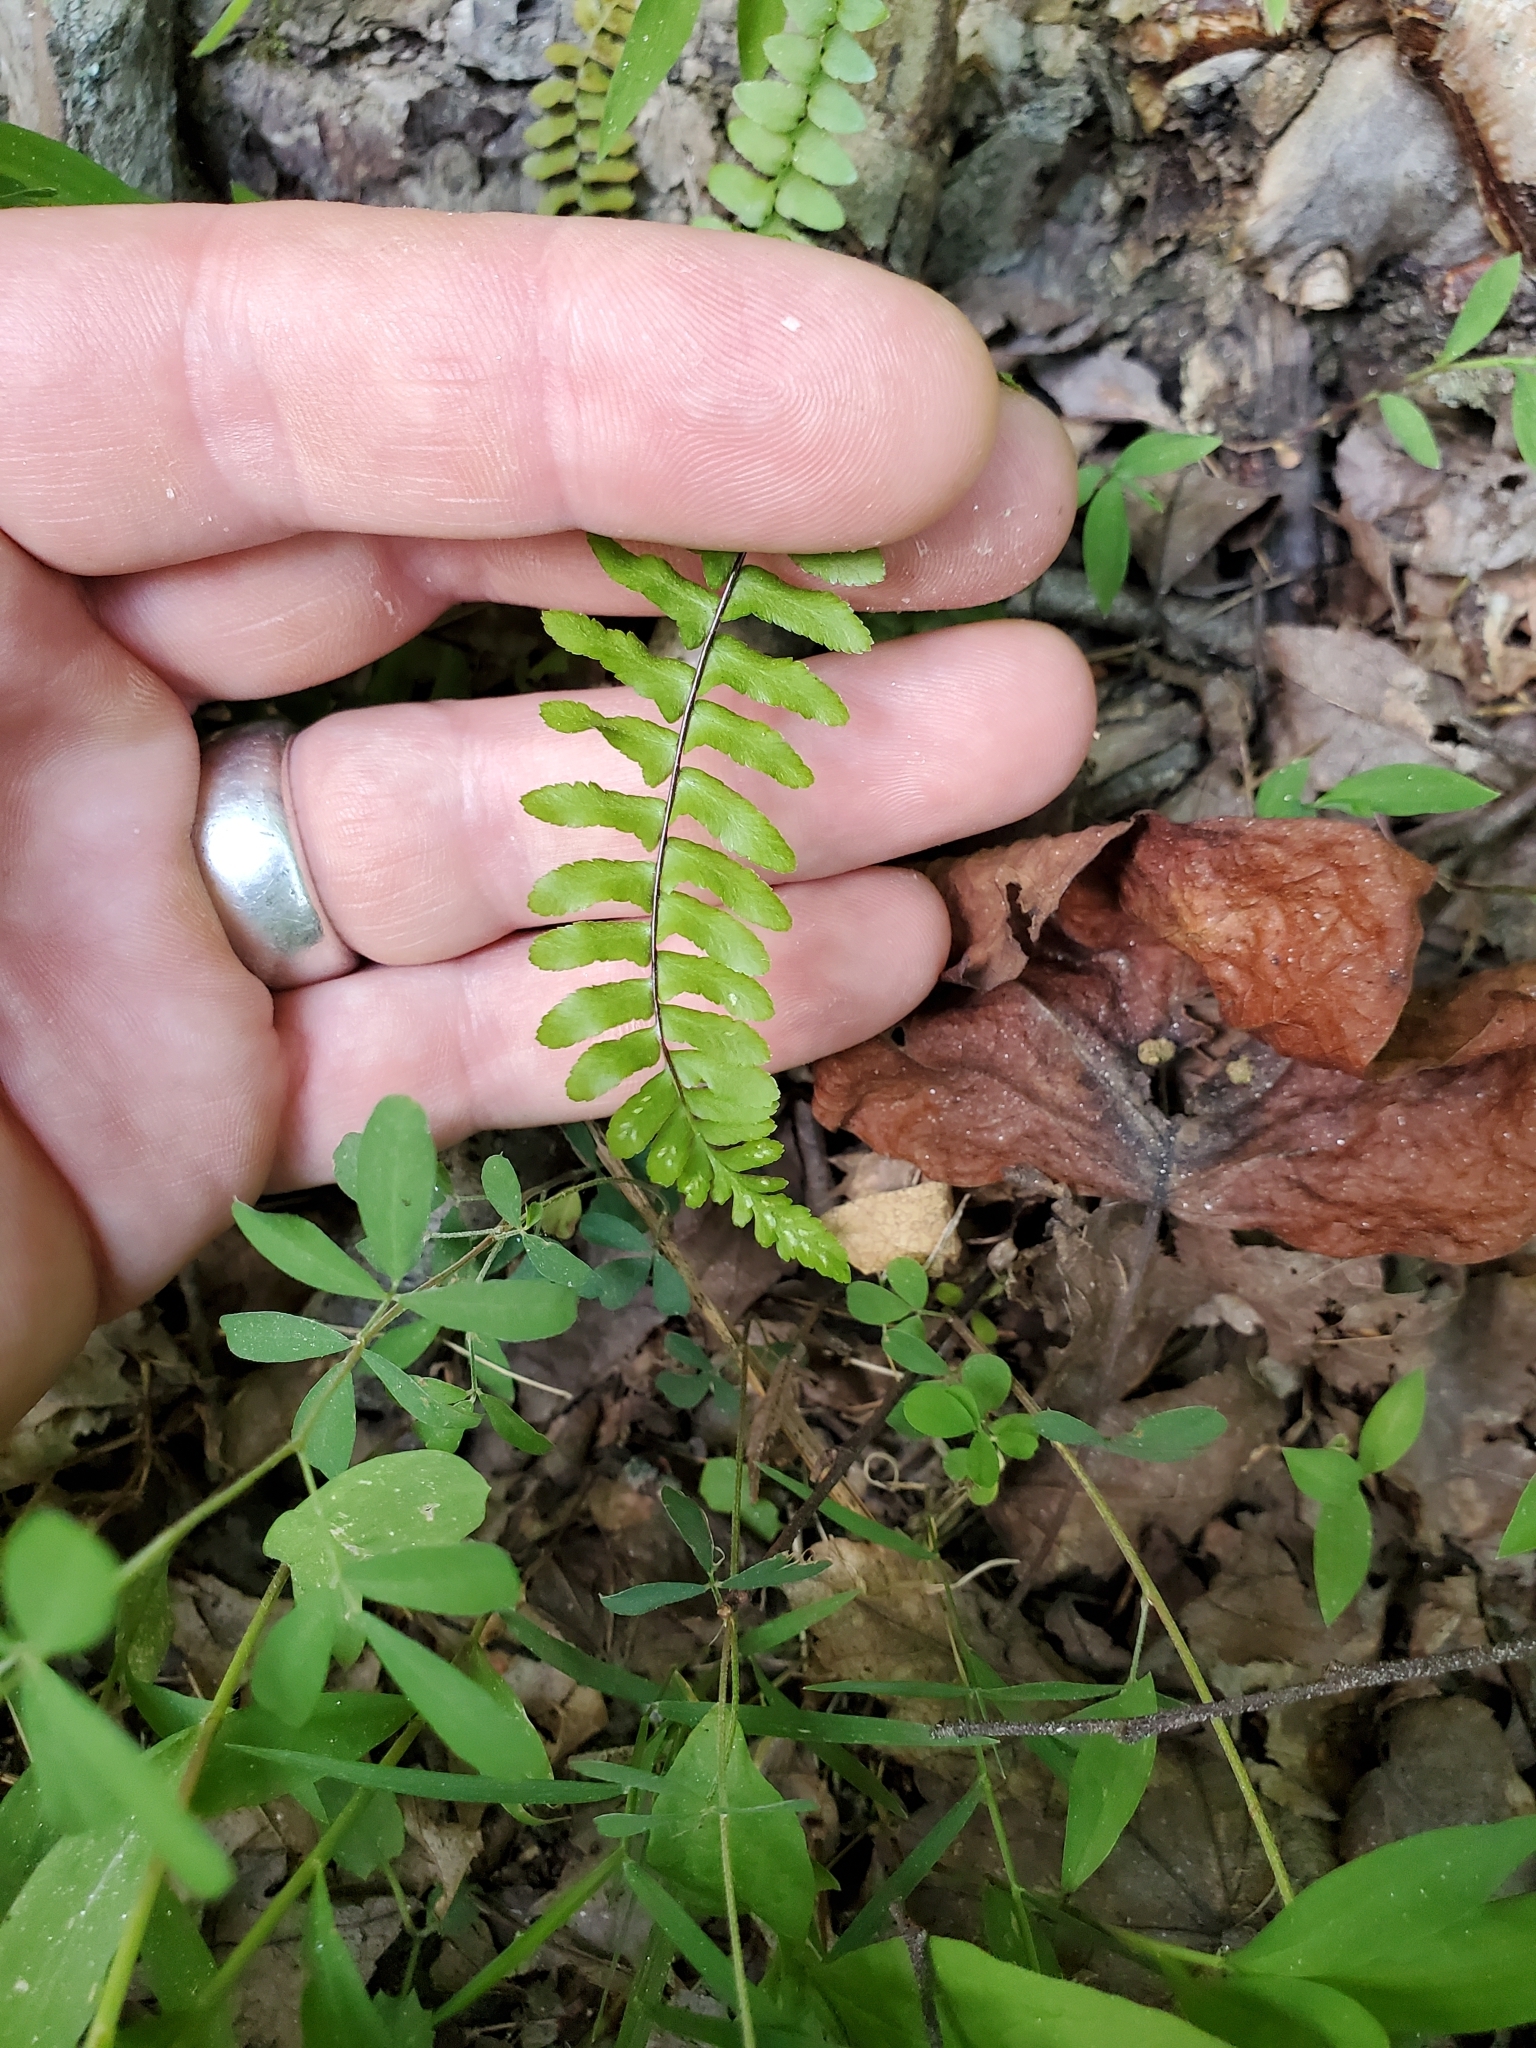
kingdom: Plantae
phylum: Tracheophyta
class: Polypodiopsida
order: Polypodiales
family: Aspleniaceae
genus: Asplenium
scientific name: Asplenium platyneuron
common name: Ebony spleenwort
